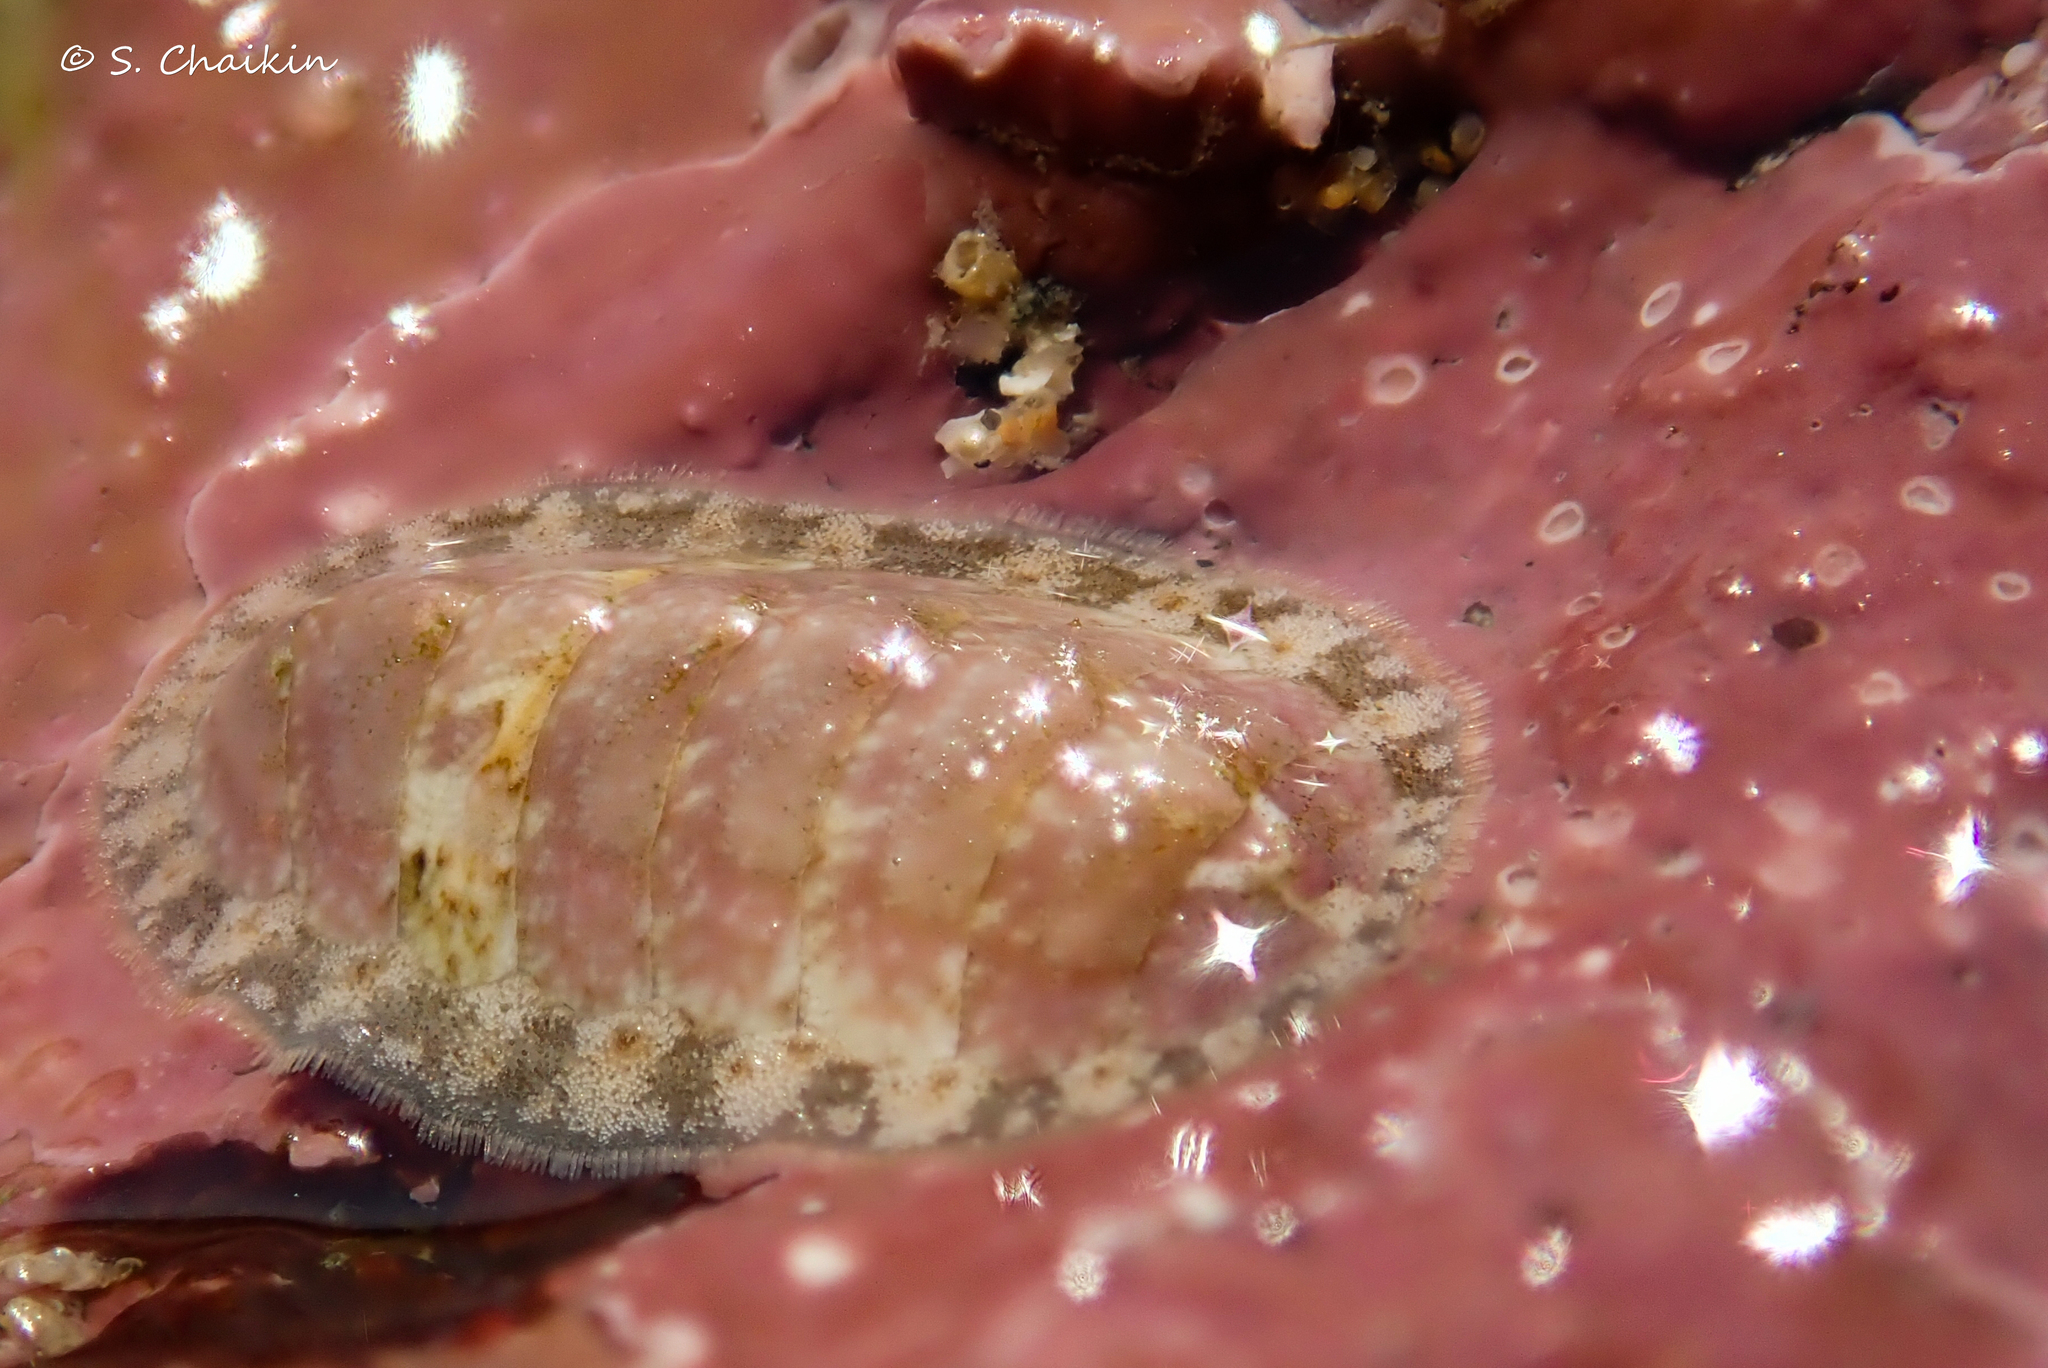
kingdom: Animalia
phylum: Mollusca
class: Polyplacophora
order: Chitonida
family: Tonicellidae
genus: Lepidochitona
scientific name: Lepidochitona cinerea
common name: Cinereous chiton
